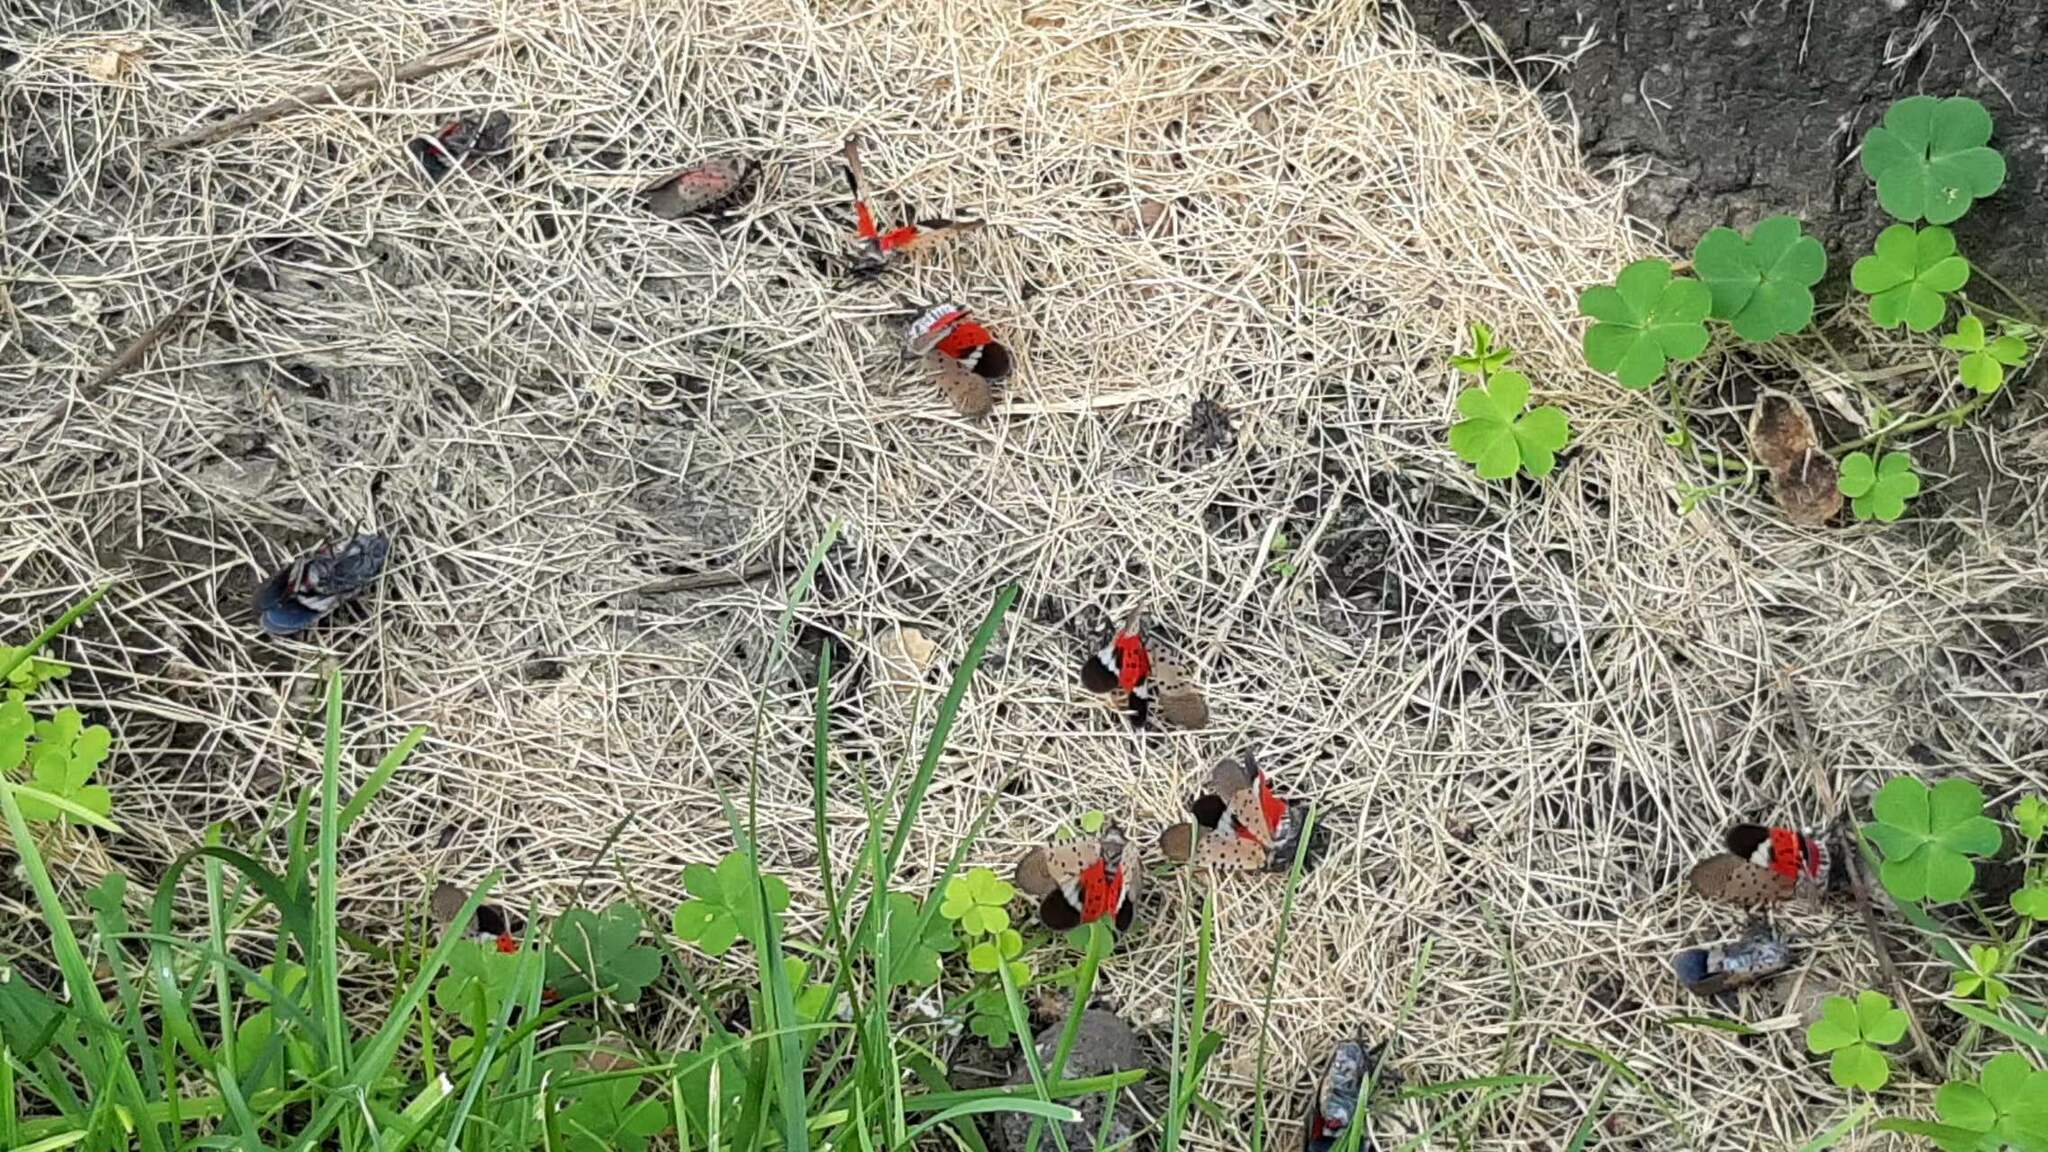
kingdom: Animalia
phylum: Arthropoda
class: Insecta
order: Hemiptera
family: Fulgoridae
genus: Lycorma
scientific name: Lycorma delicatula
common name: Spotted lanternfly
